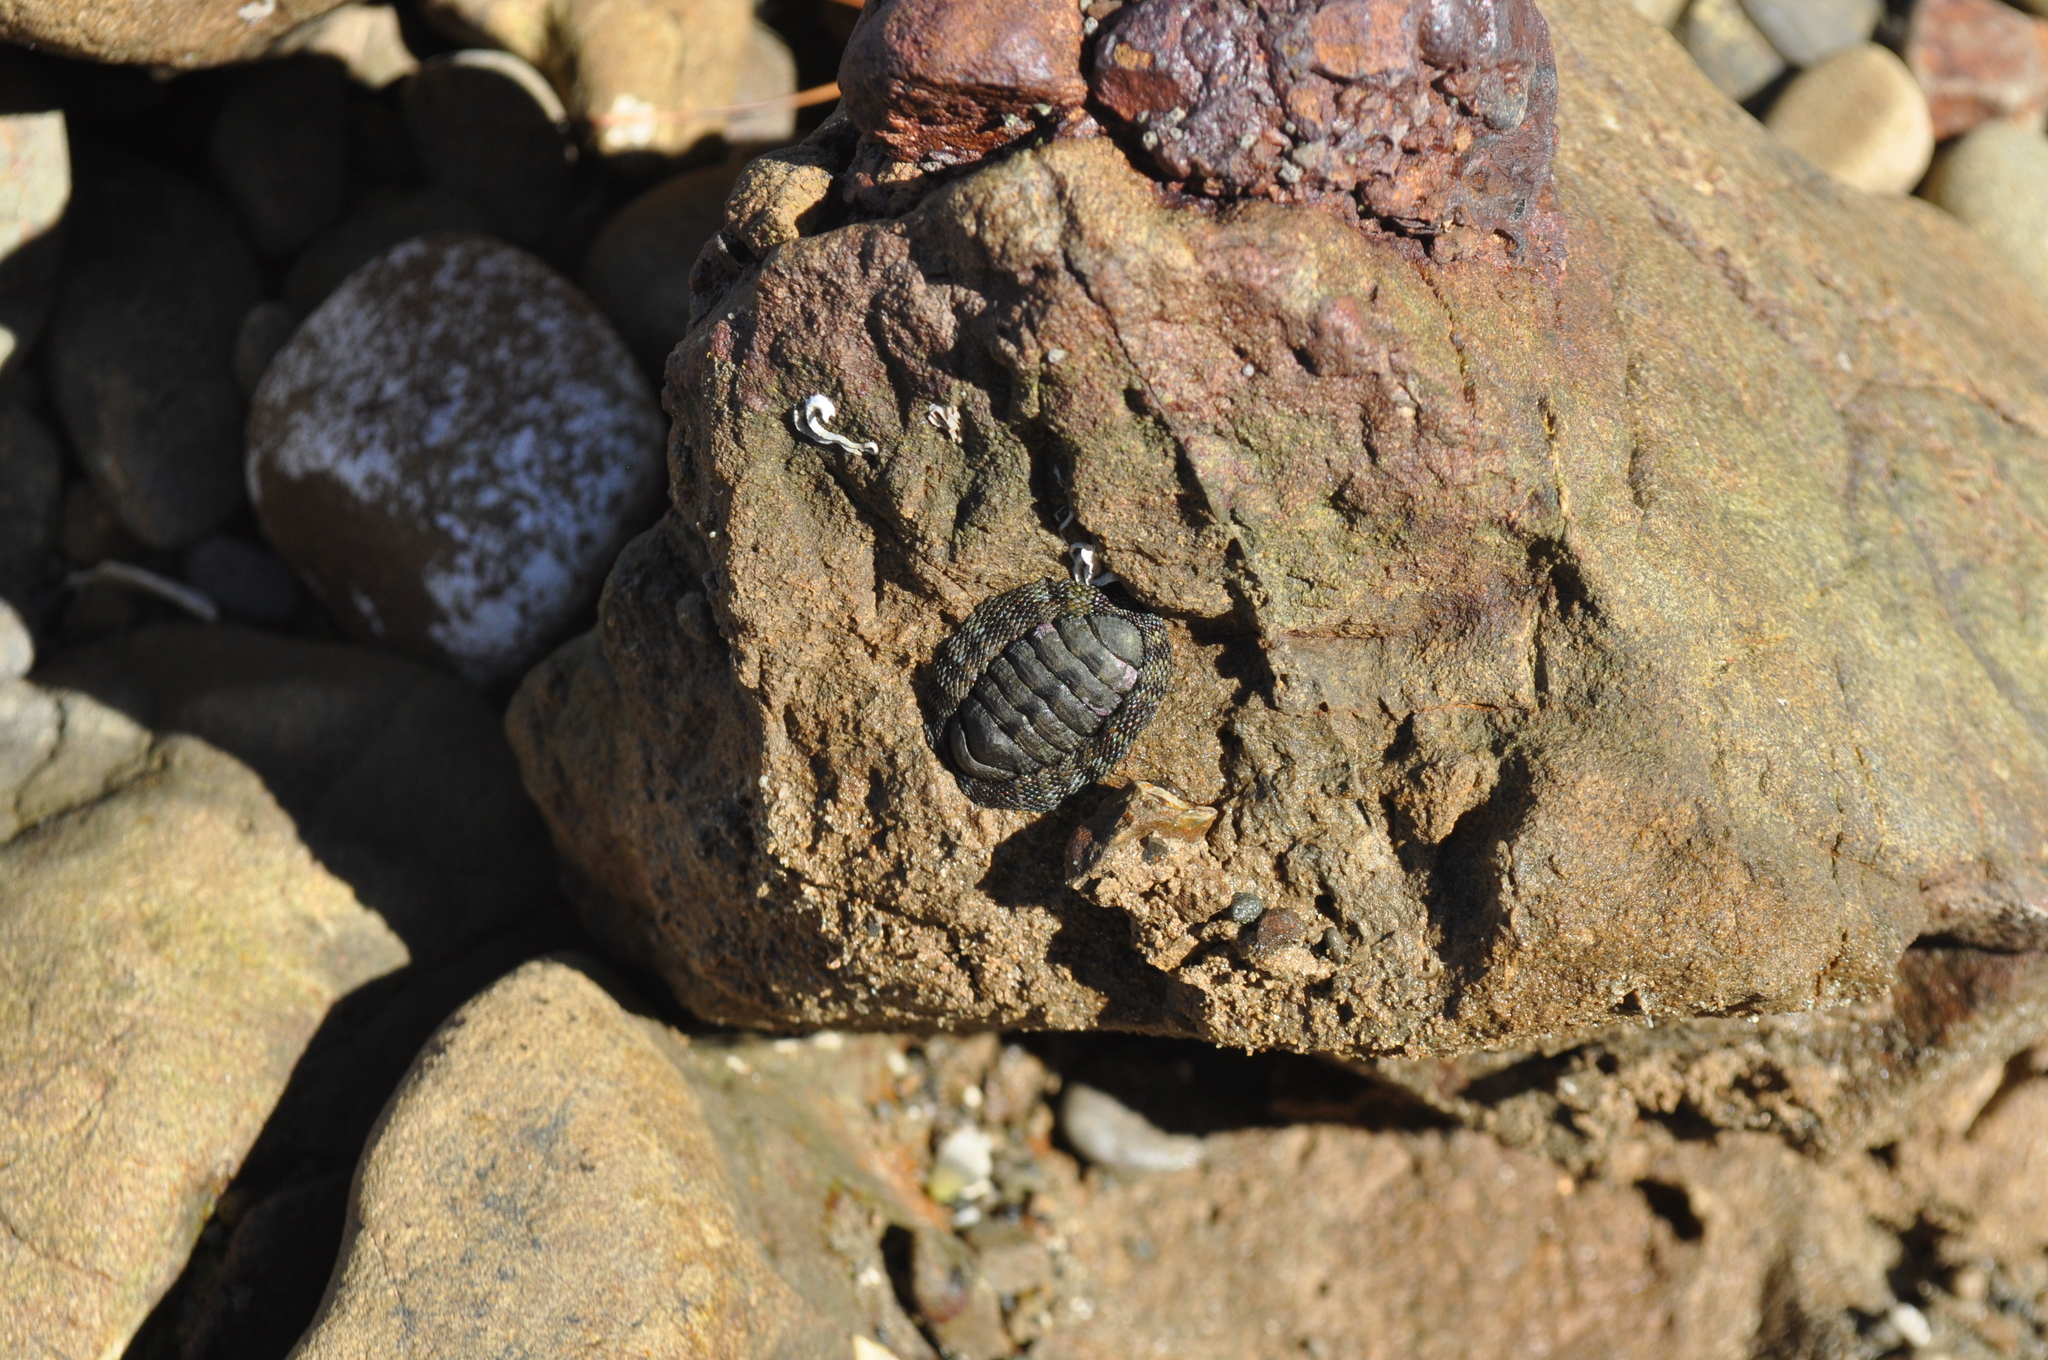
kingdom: Animalia
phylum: Mollusca
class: Polyplacophora
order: Chitonida
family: Chitonidae
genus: Sypharochiton
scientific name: Sypharochiton pelliserpentis
